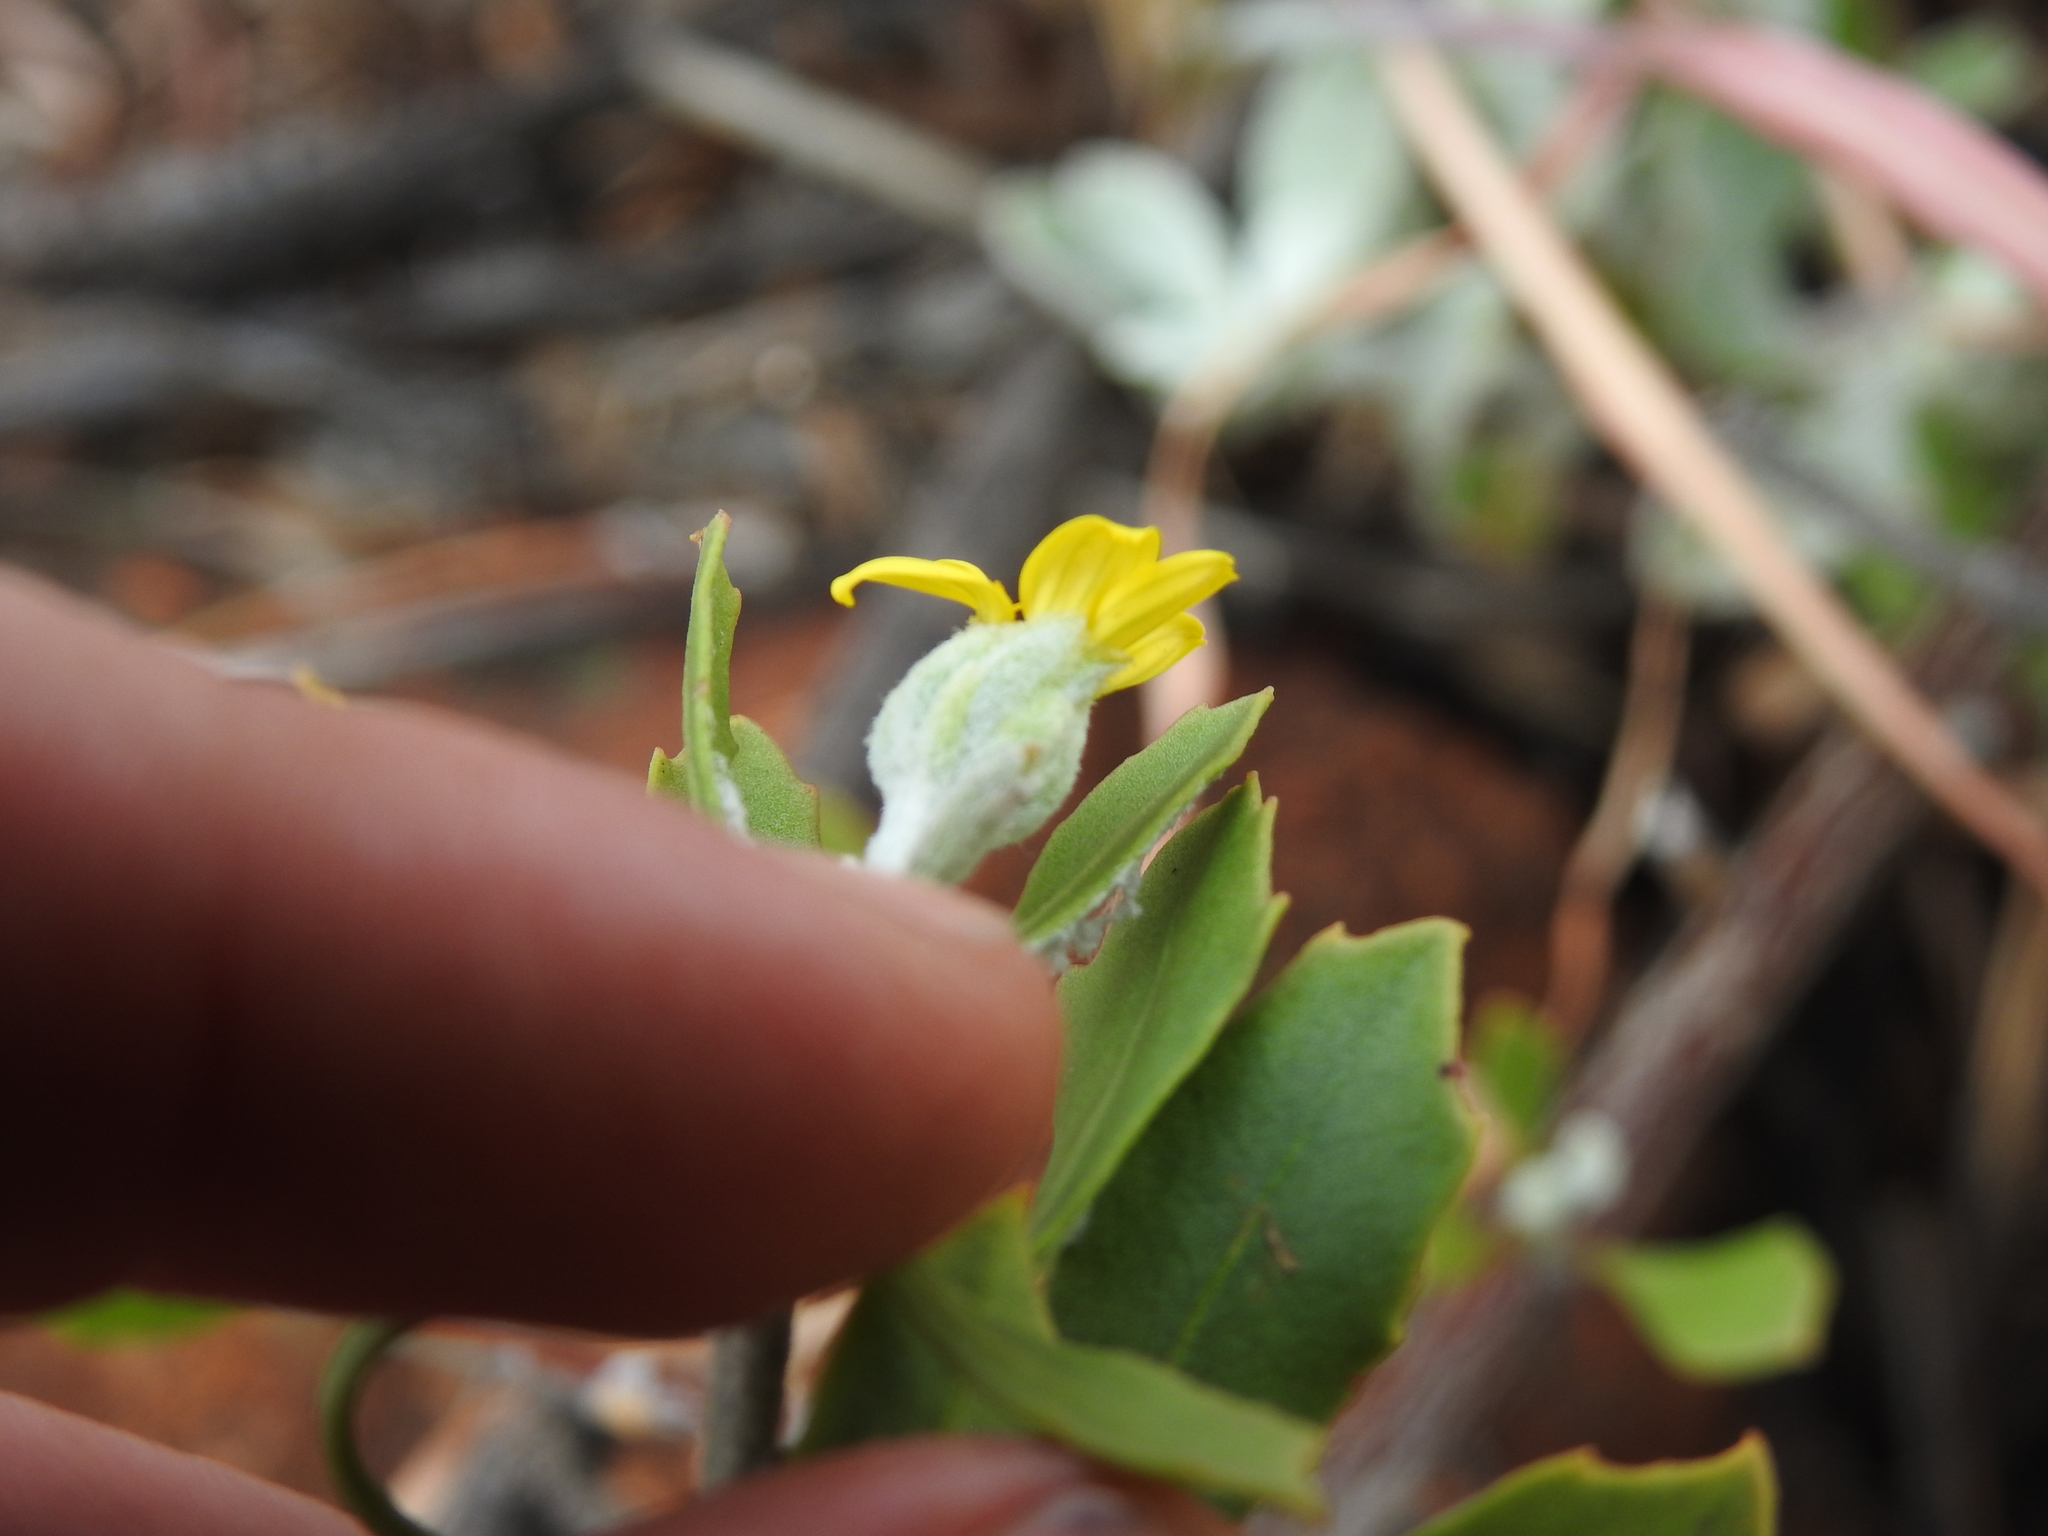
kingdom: Plantae
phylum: Tracheophyta
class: Magnoliopsida
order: Asterales
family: Asteraceae
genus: Osteospermum
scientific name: Osteospermum moniliferum
